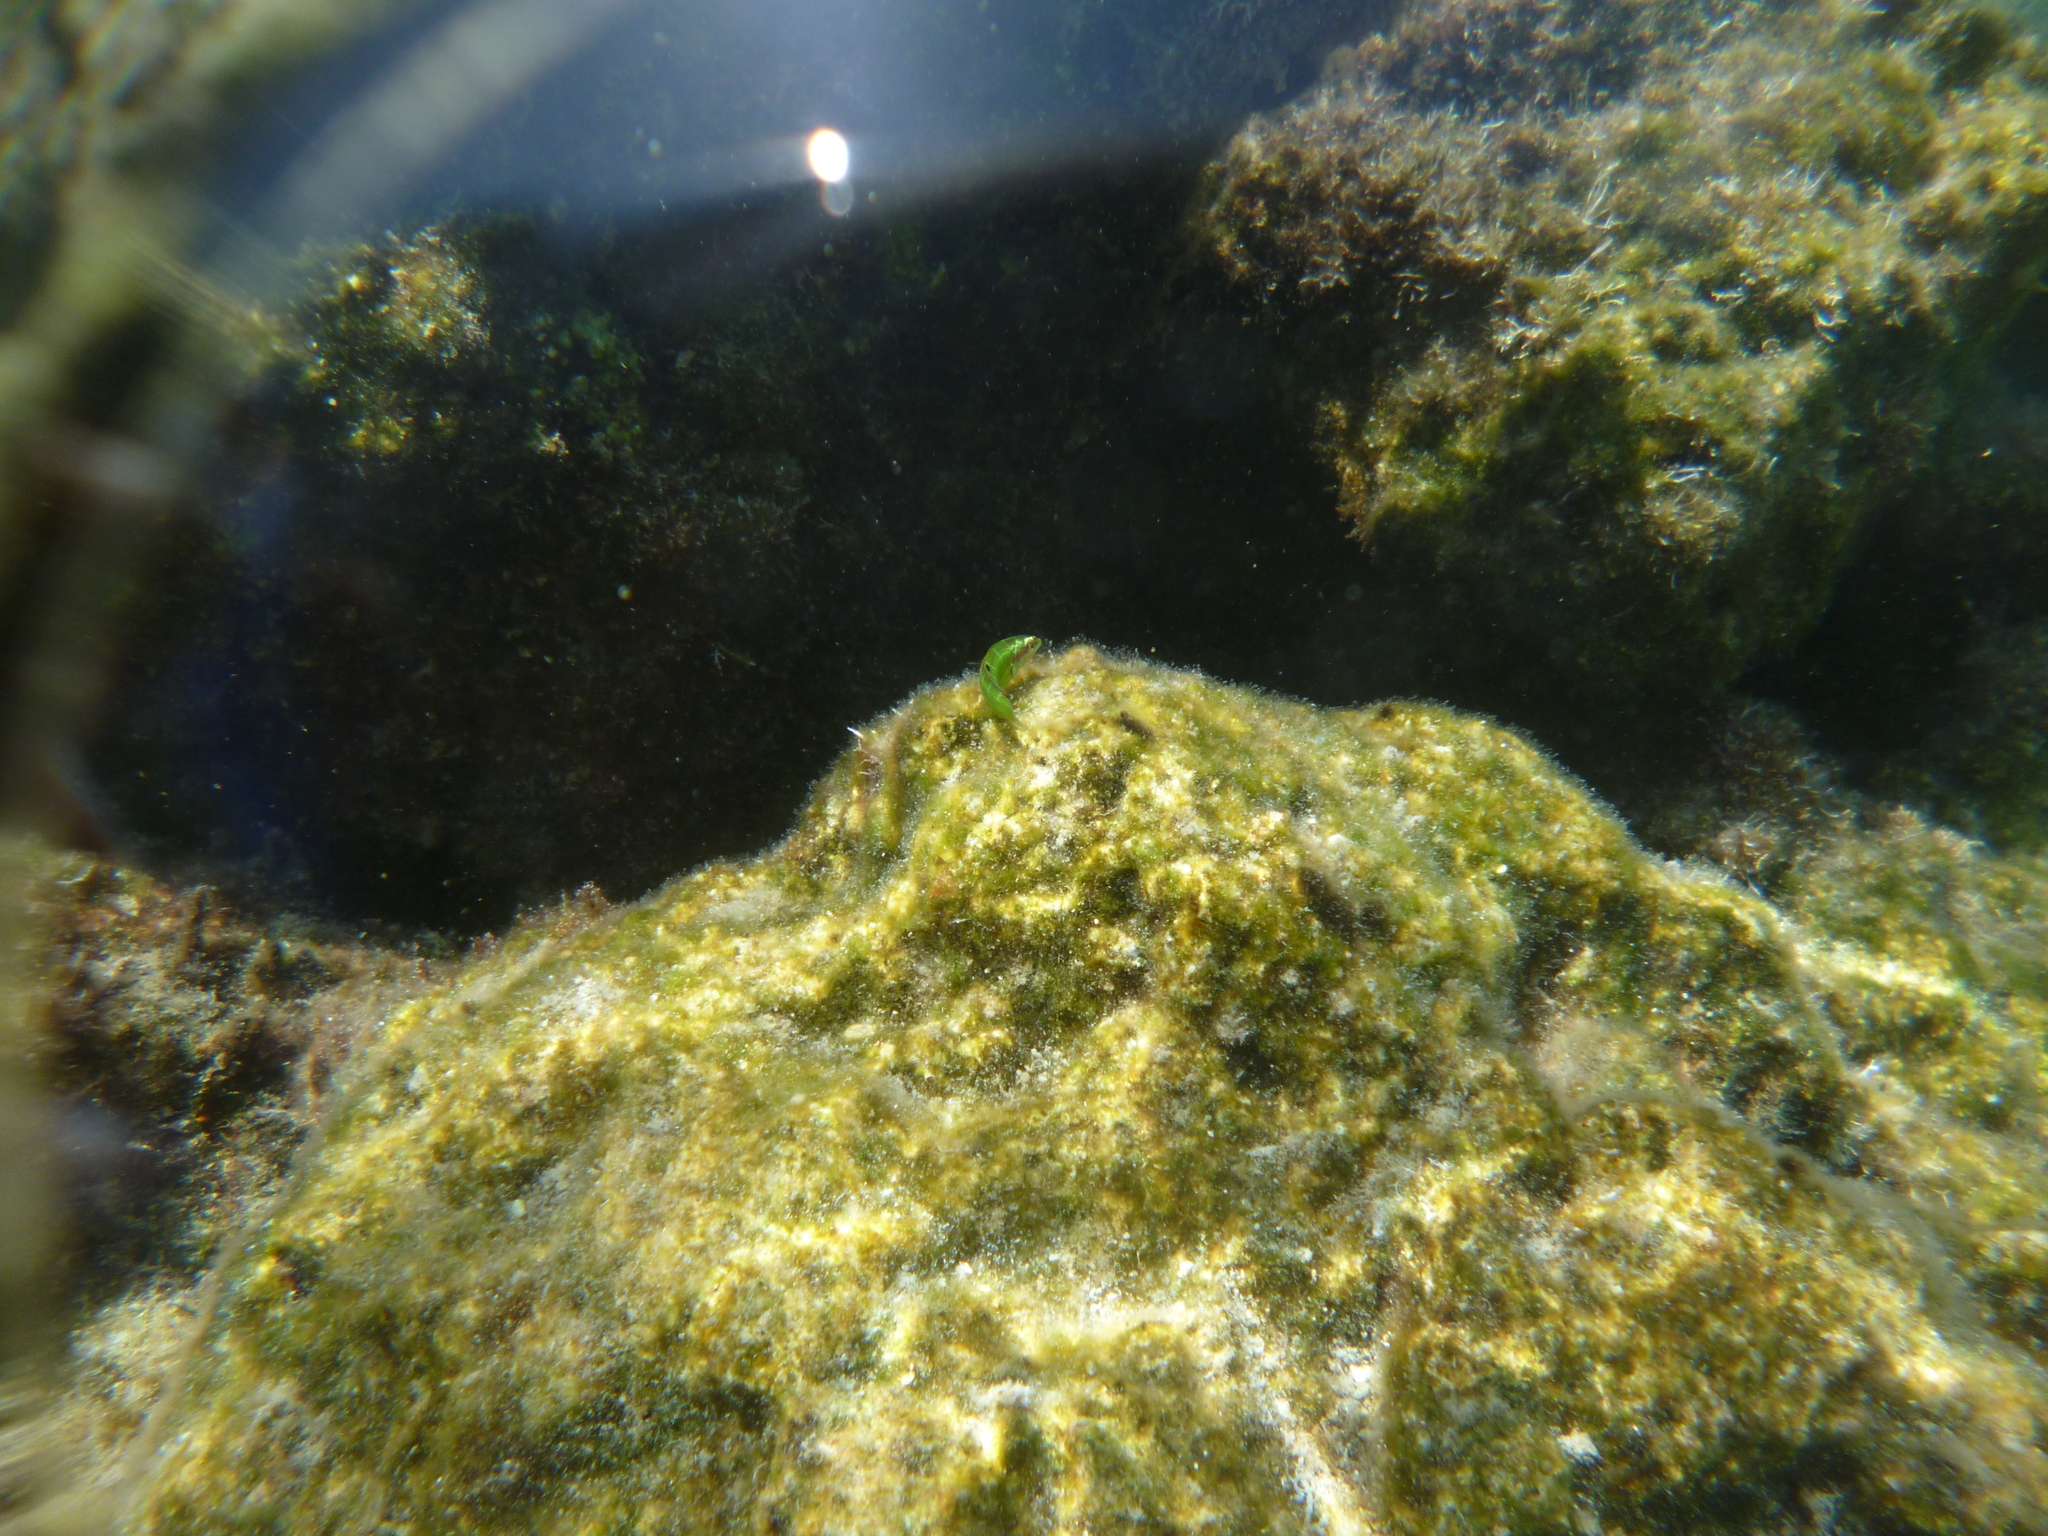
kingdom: Animalia
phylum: Chordata
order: Perciformes
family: Labridae
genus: Thalassoma
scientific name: Thalassoma pavo
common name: Ornate wrasse
